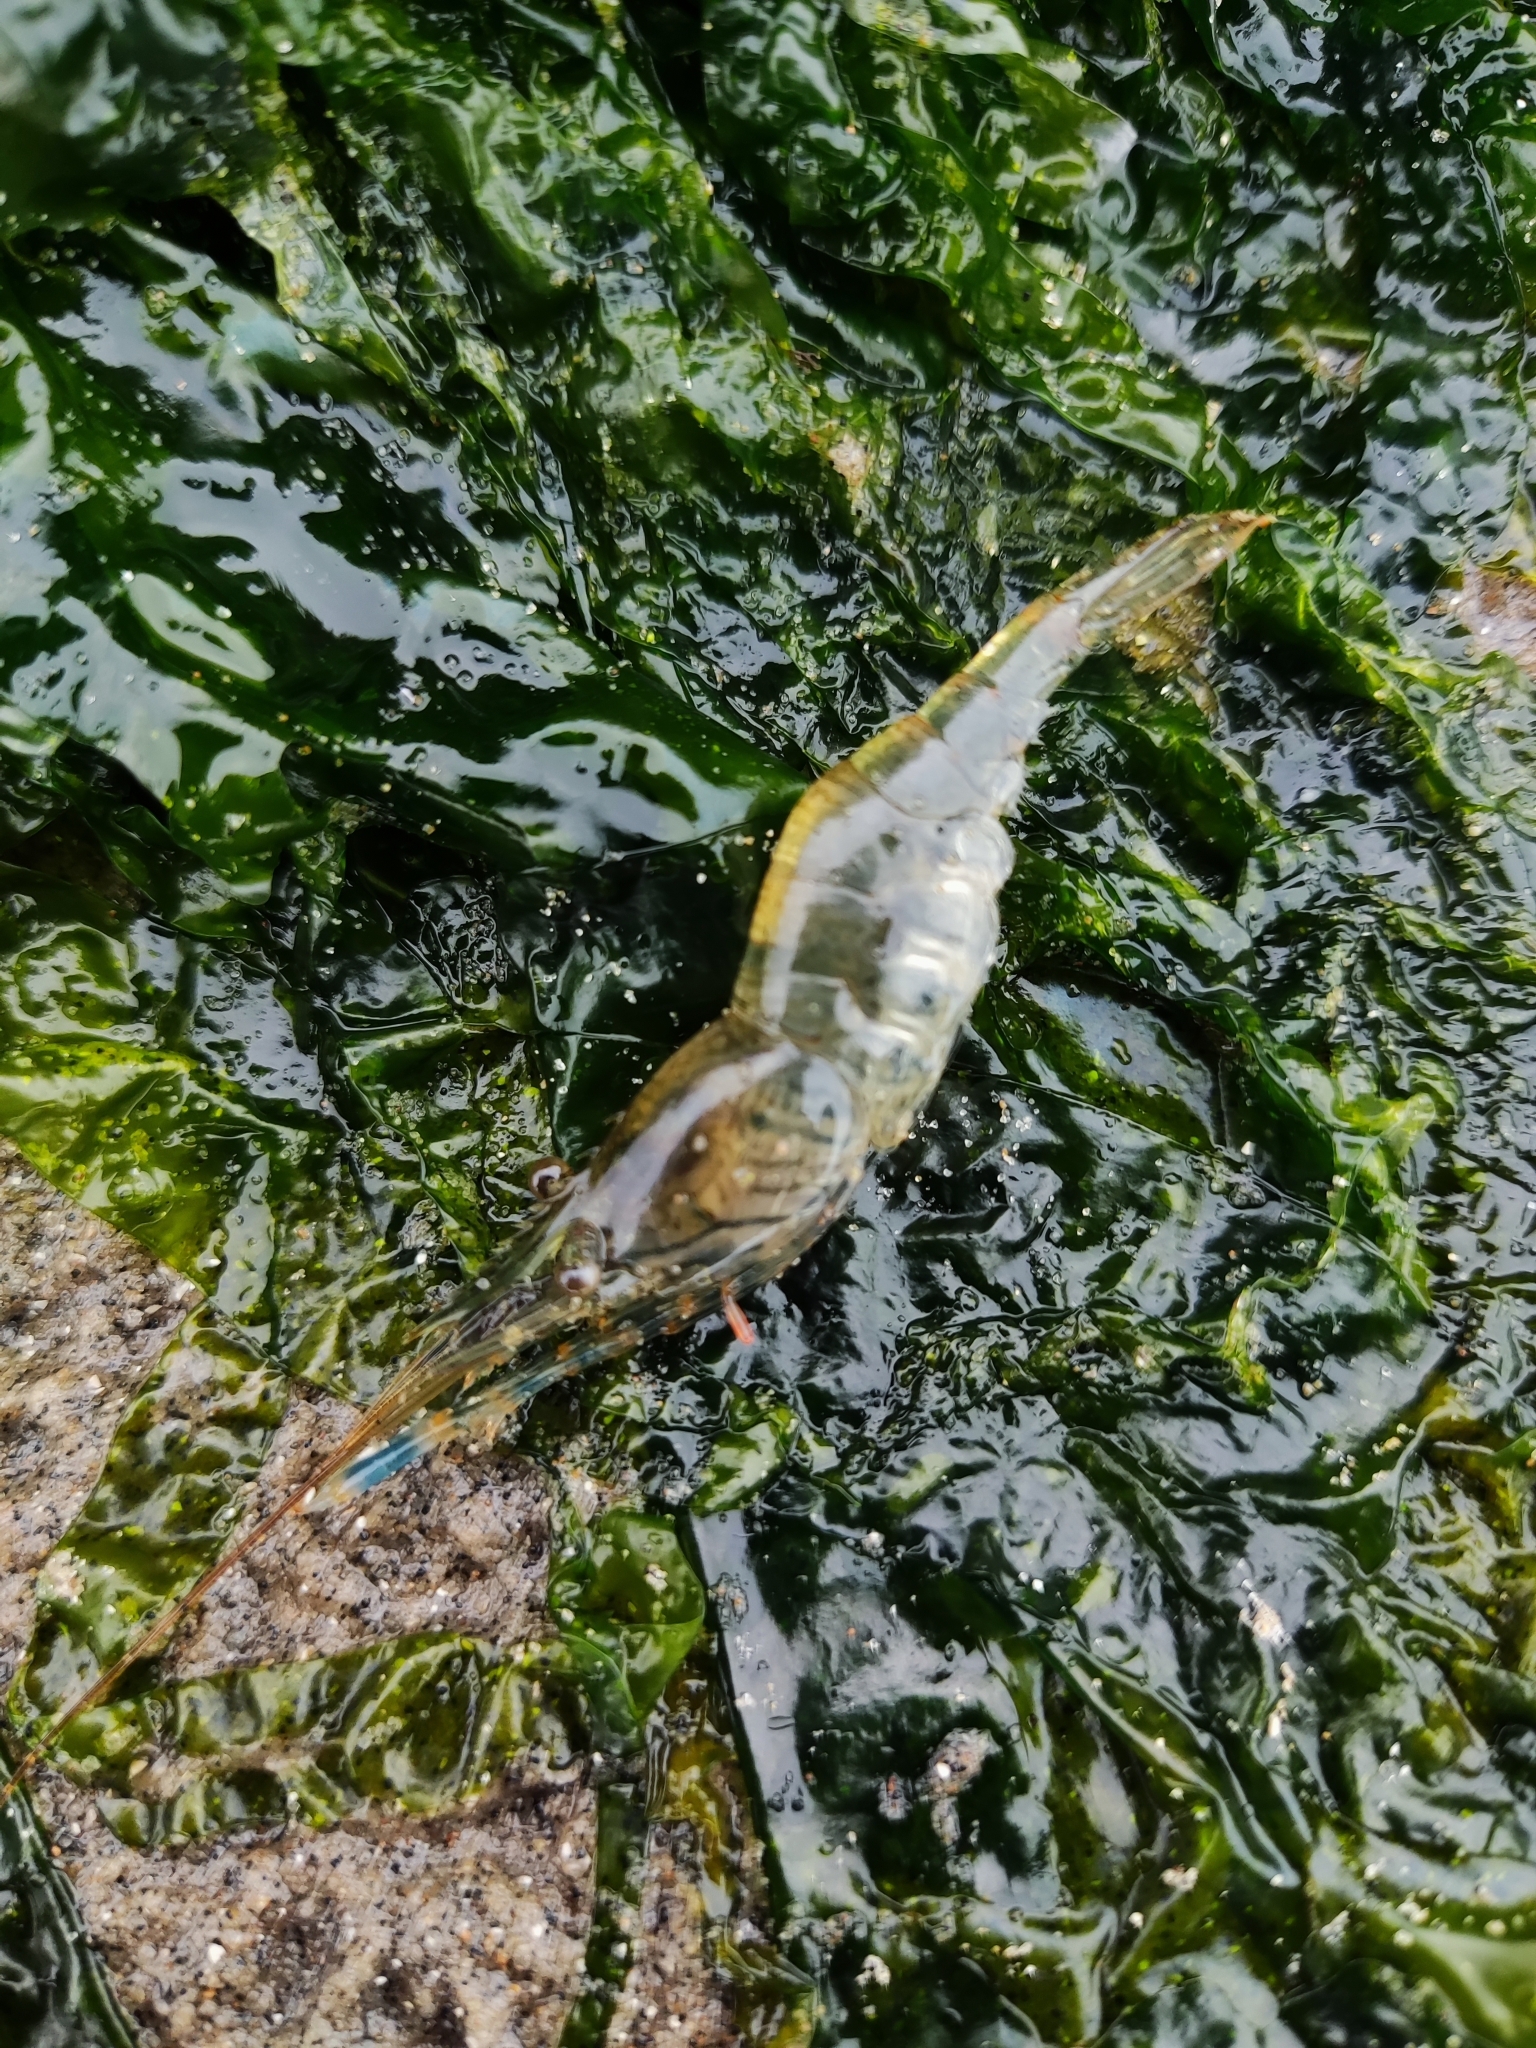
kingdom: Animalia
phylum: Arthropoda
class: Malacostraca
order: Decapoda
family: Palaemonidae
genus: Palaemon
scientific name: Palaemon elegans
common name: Grass prawm
